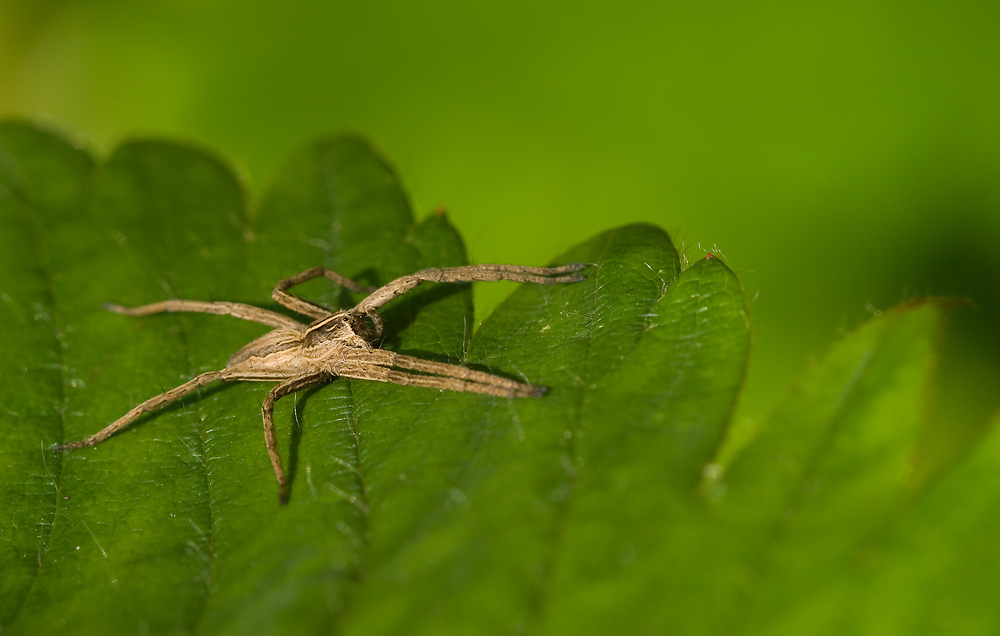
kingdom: Animalia
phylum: Arthropoda
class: Arachnida
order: Araneae
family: Pisauridae
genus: Pisaura
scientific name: Pisaura mirabilis
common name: Tent spider
